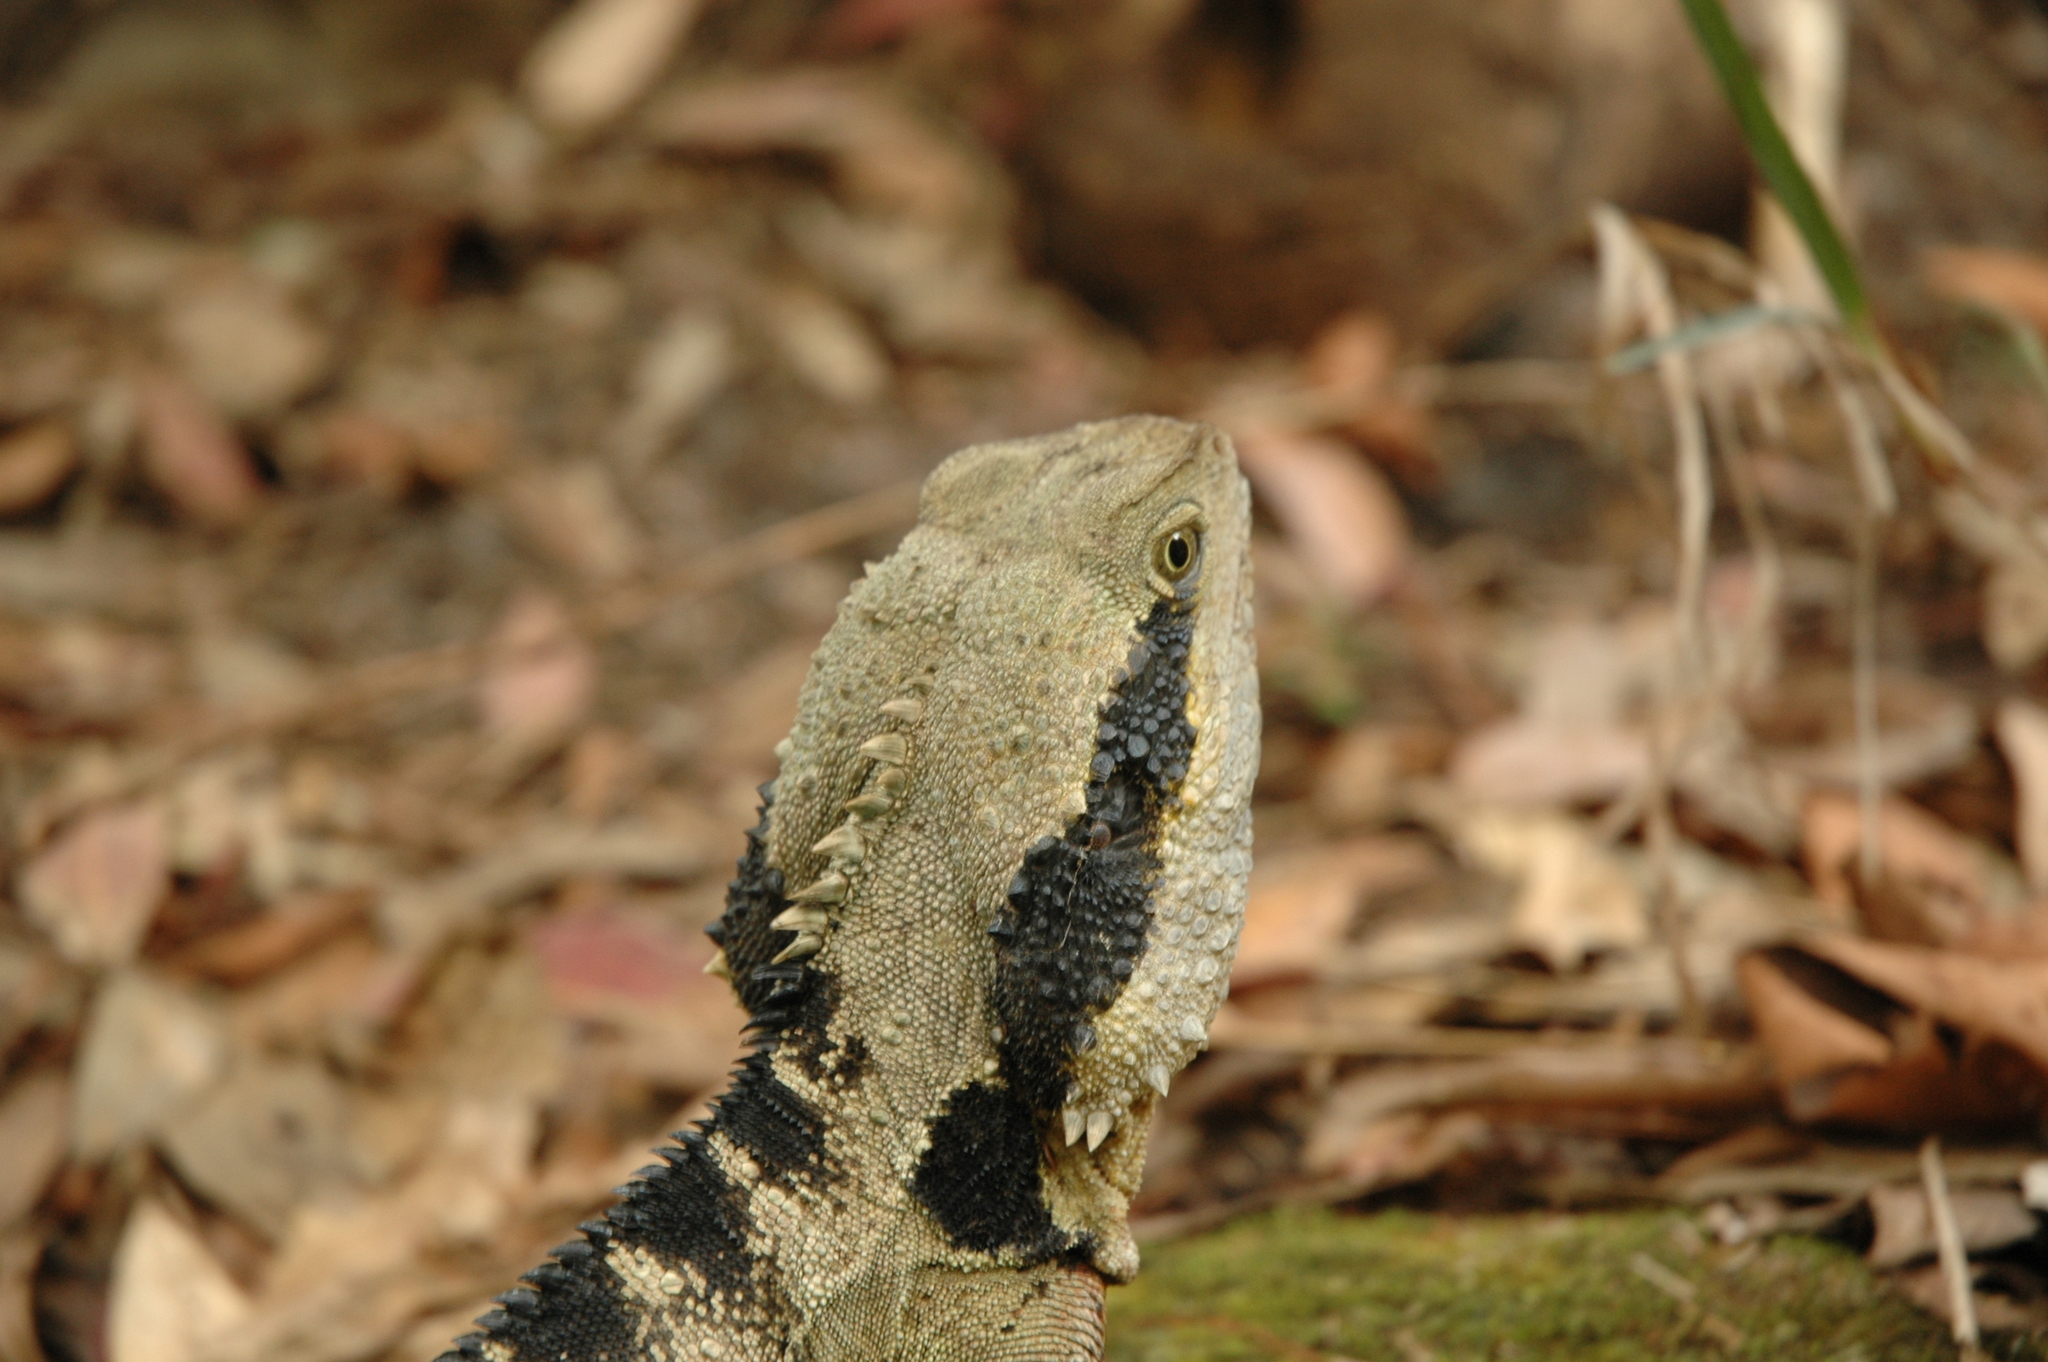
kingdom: Animalia
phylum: Chordata
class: Squamata
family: Agamidae
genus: Intellagama
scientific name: Intellagama lesueurii
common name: Eastern water dragon
